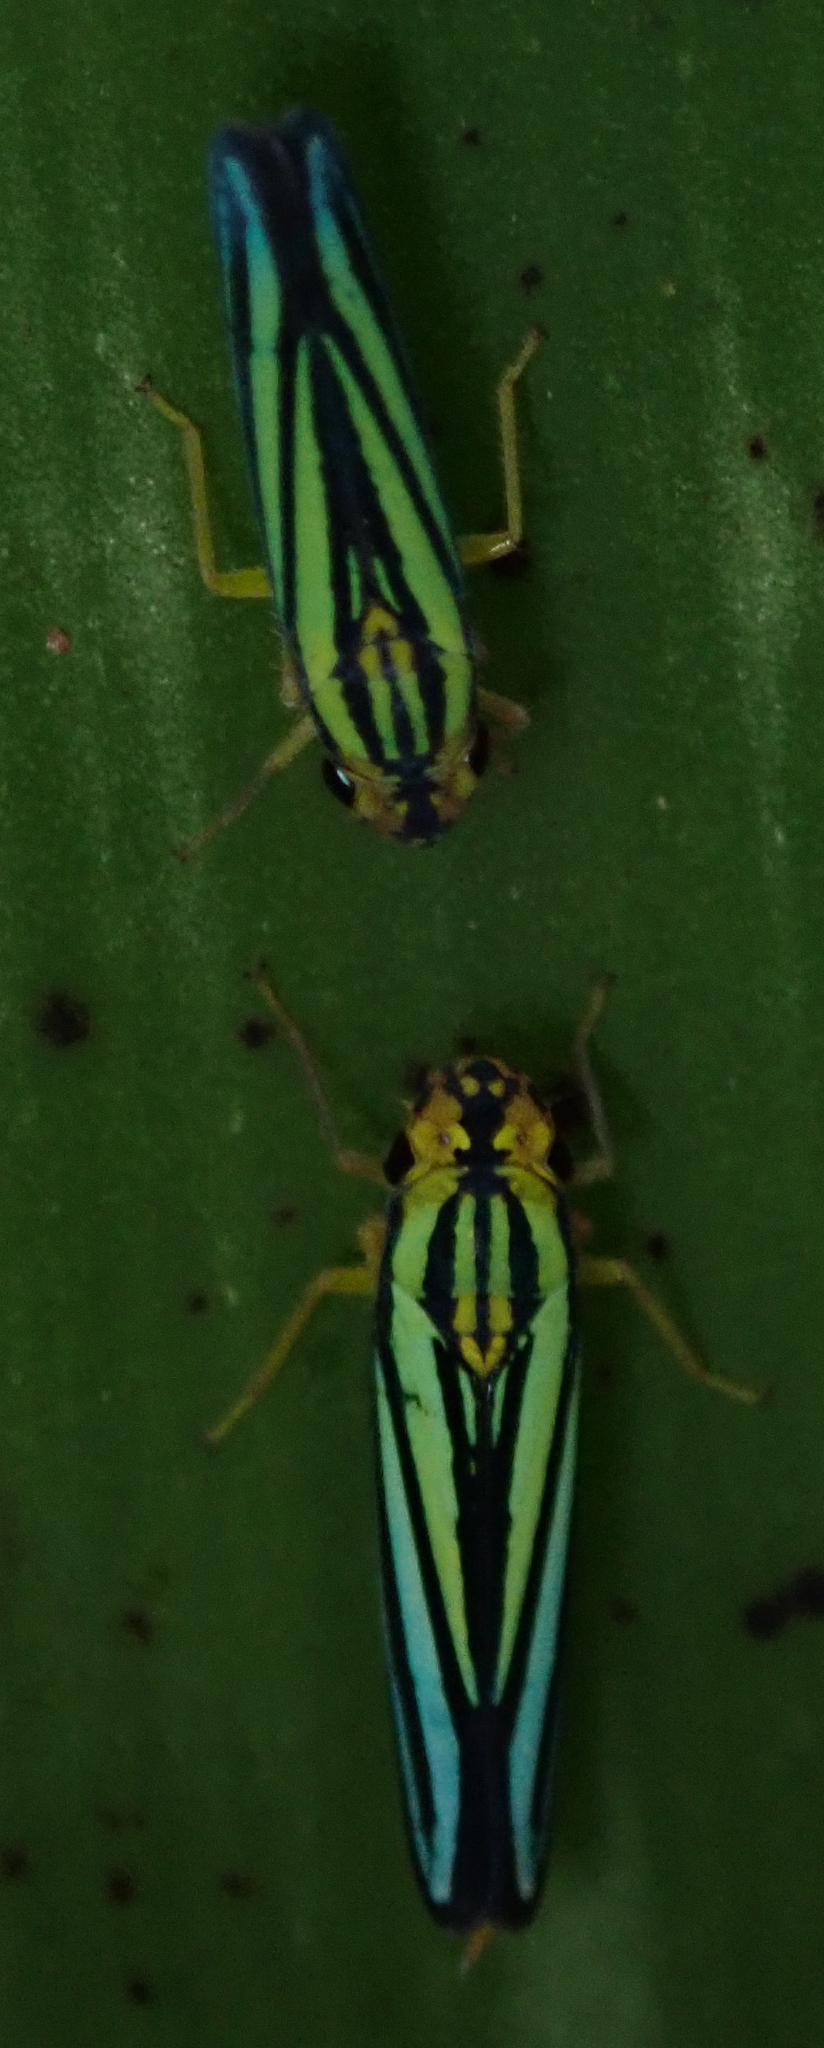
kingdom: Animalia
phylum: Arthropoda
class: Insecta
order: Hemiptera
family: Cicadellidae
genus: Tettigoniella
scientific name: Tettigoniella cosmopolita
